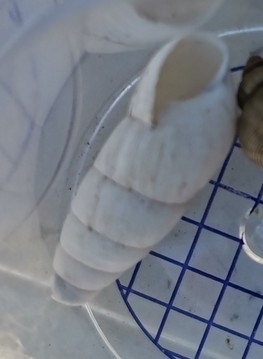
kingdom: Animalia
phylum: Mollusca
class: Gastropoda
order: Stylommatophora
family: Achatinidae
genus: Rumina
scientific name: Rumina decollata
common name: Decollate snail
